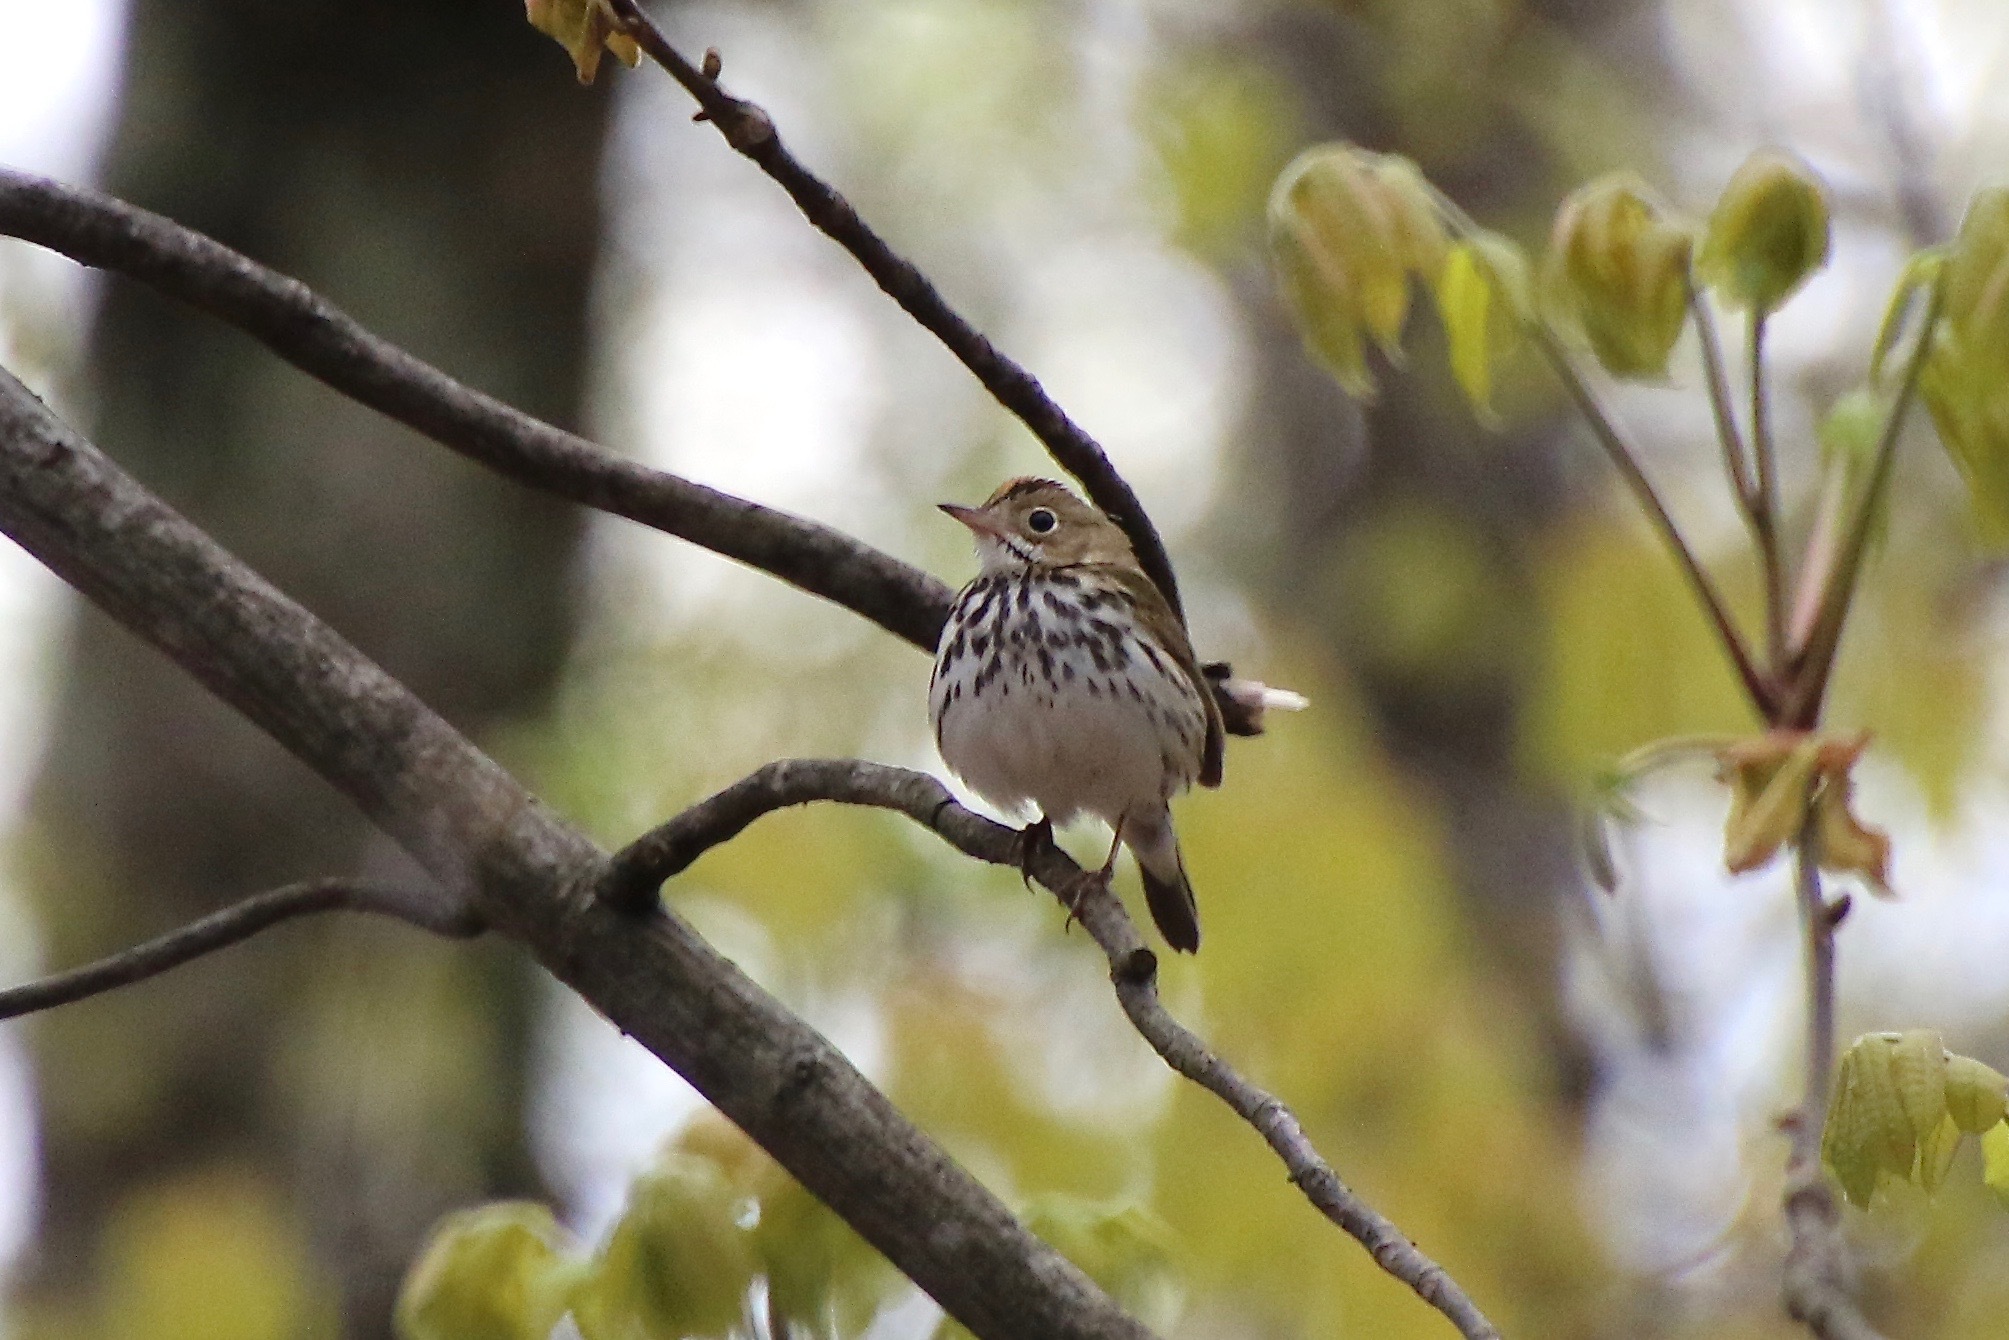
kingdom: Animalia
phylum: Chordata
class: Aves
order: Passeriformes
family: Parulidae
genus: Seiurus
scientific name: Seiurus aurocapilla
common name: Ovenbird
